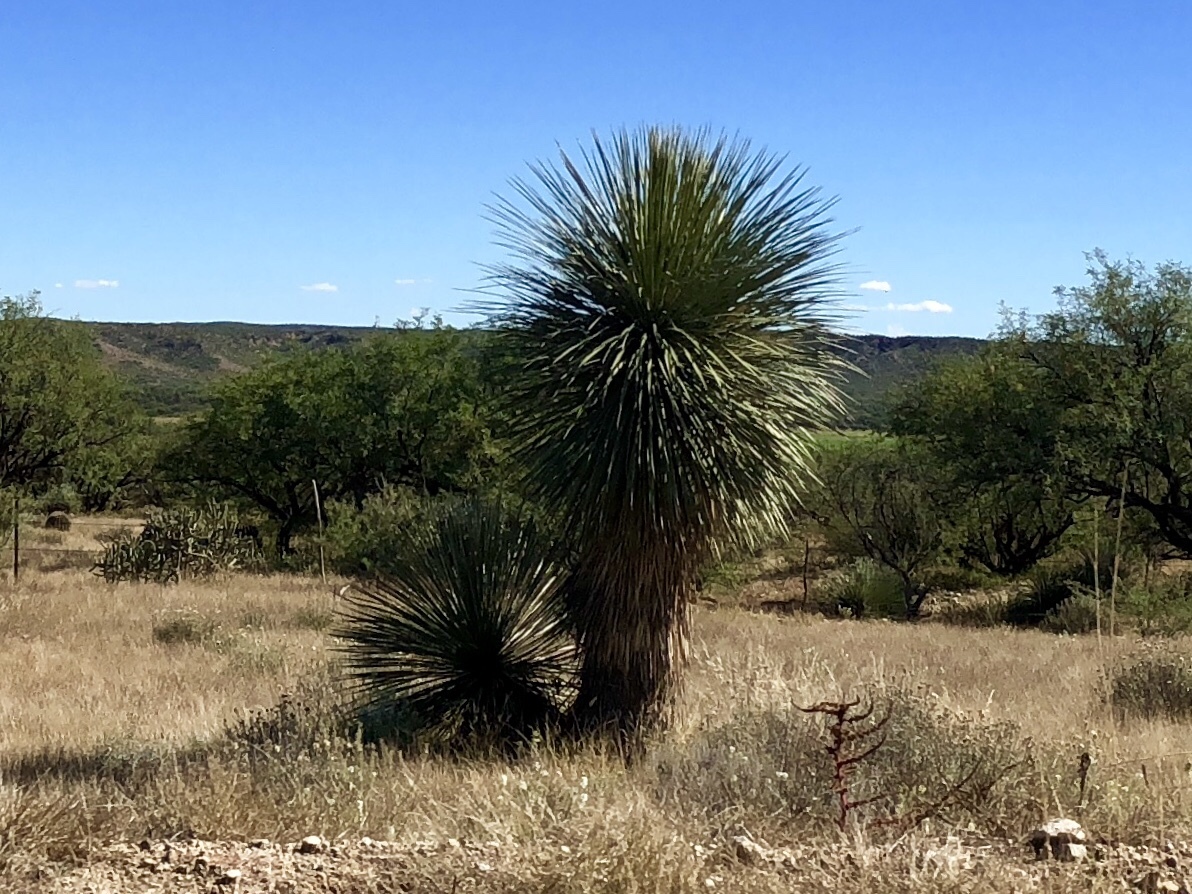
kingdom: Plantae
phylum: Tracheophyta
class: Liliopsida
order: Asparagales
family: Asparagaceae
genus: Yucca
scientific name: Yucca elata
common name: Palmella
